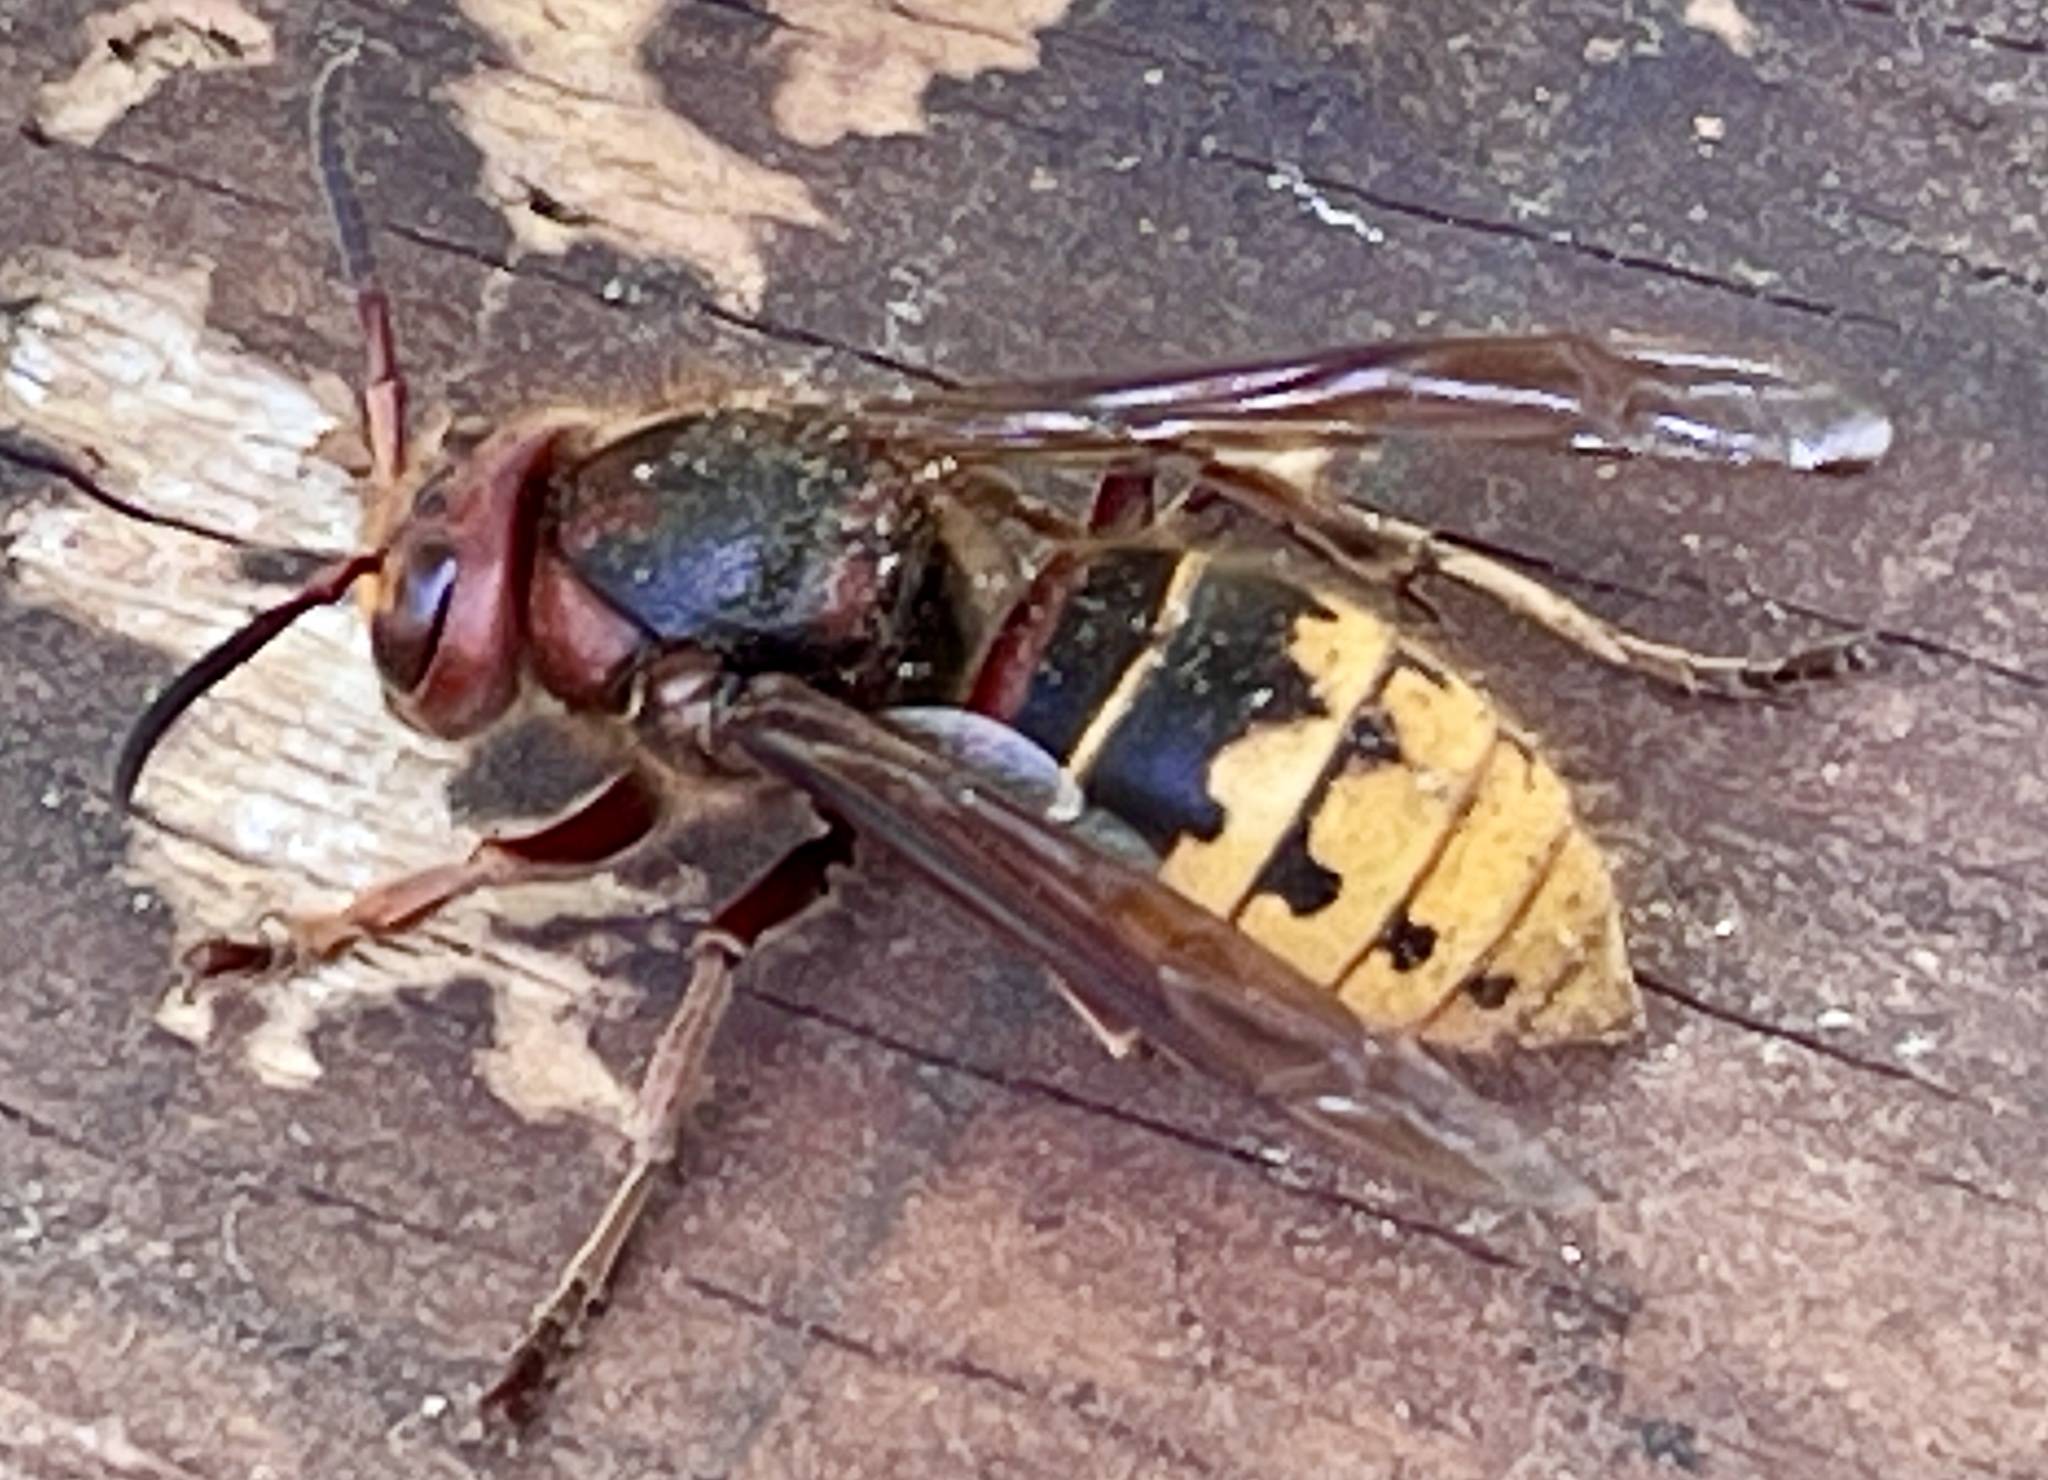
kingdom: Animalia
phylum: Arthropoda
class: Insecta
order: Hymenoptera
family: Vespidae
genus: Vespa
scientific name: Vespa crabro
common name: Hornet
